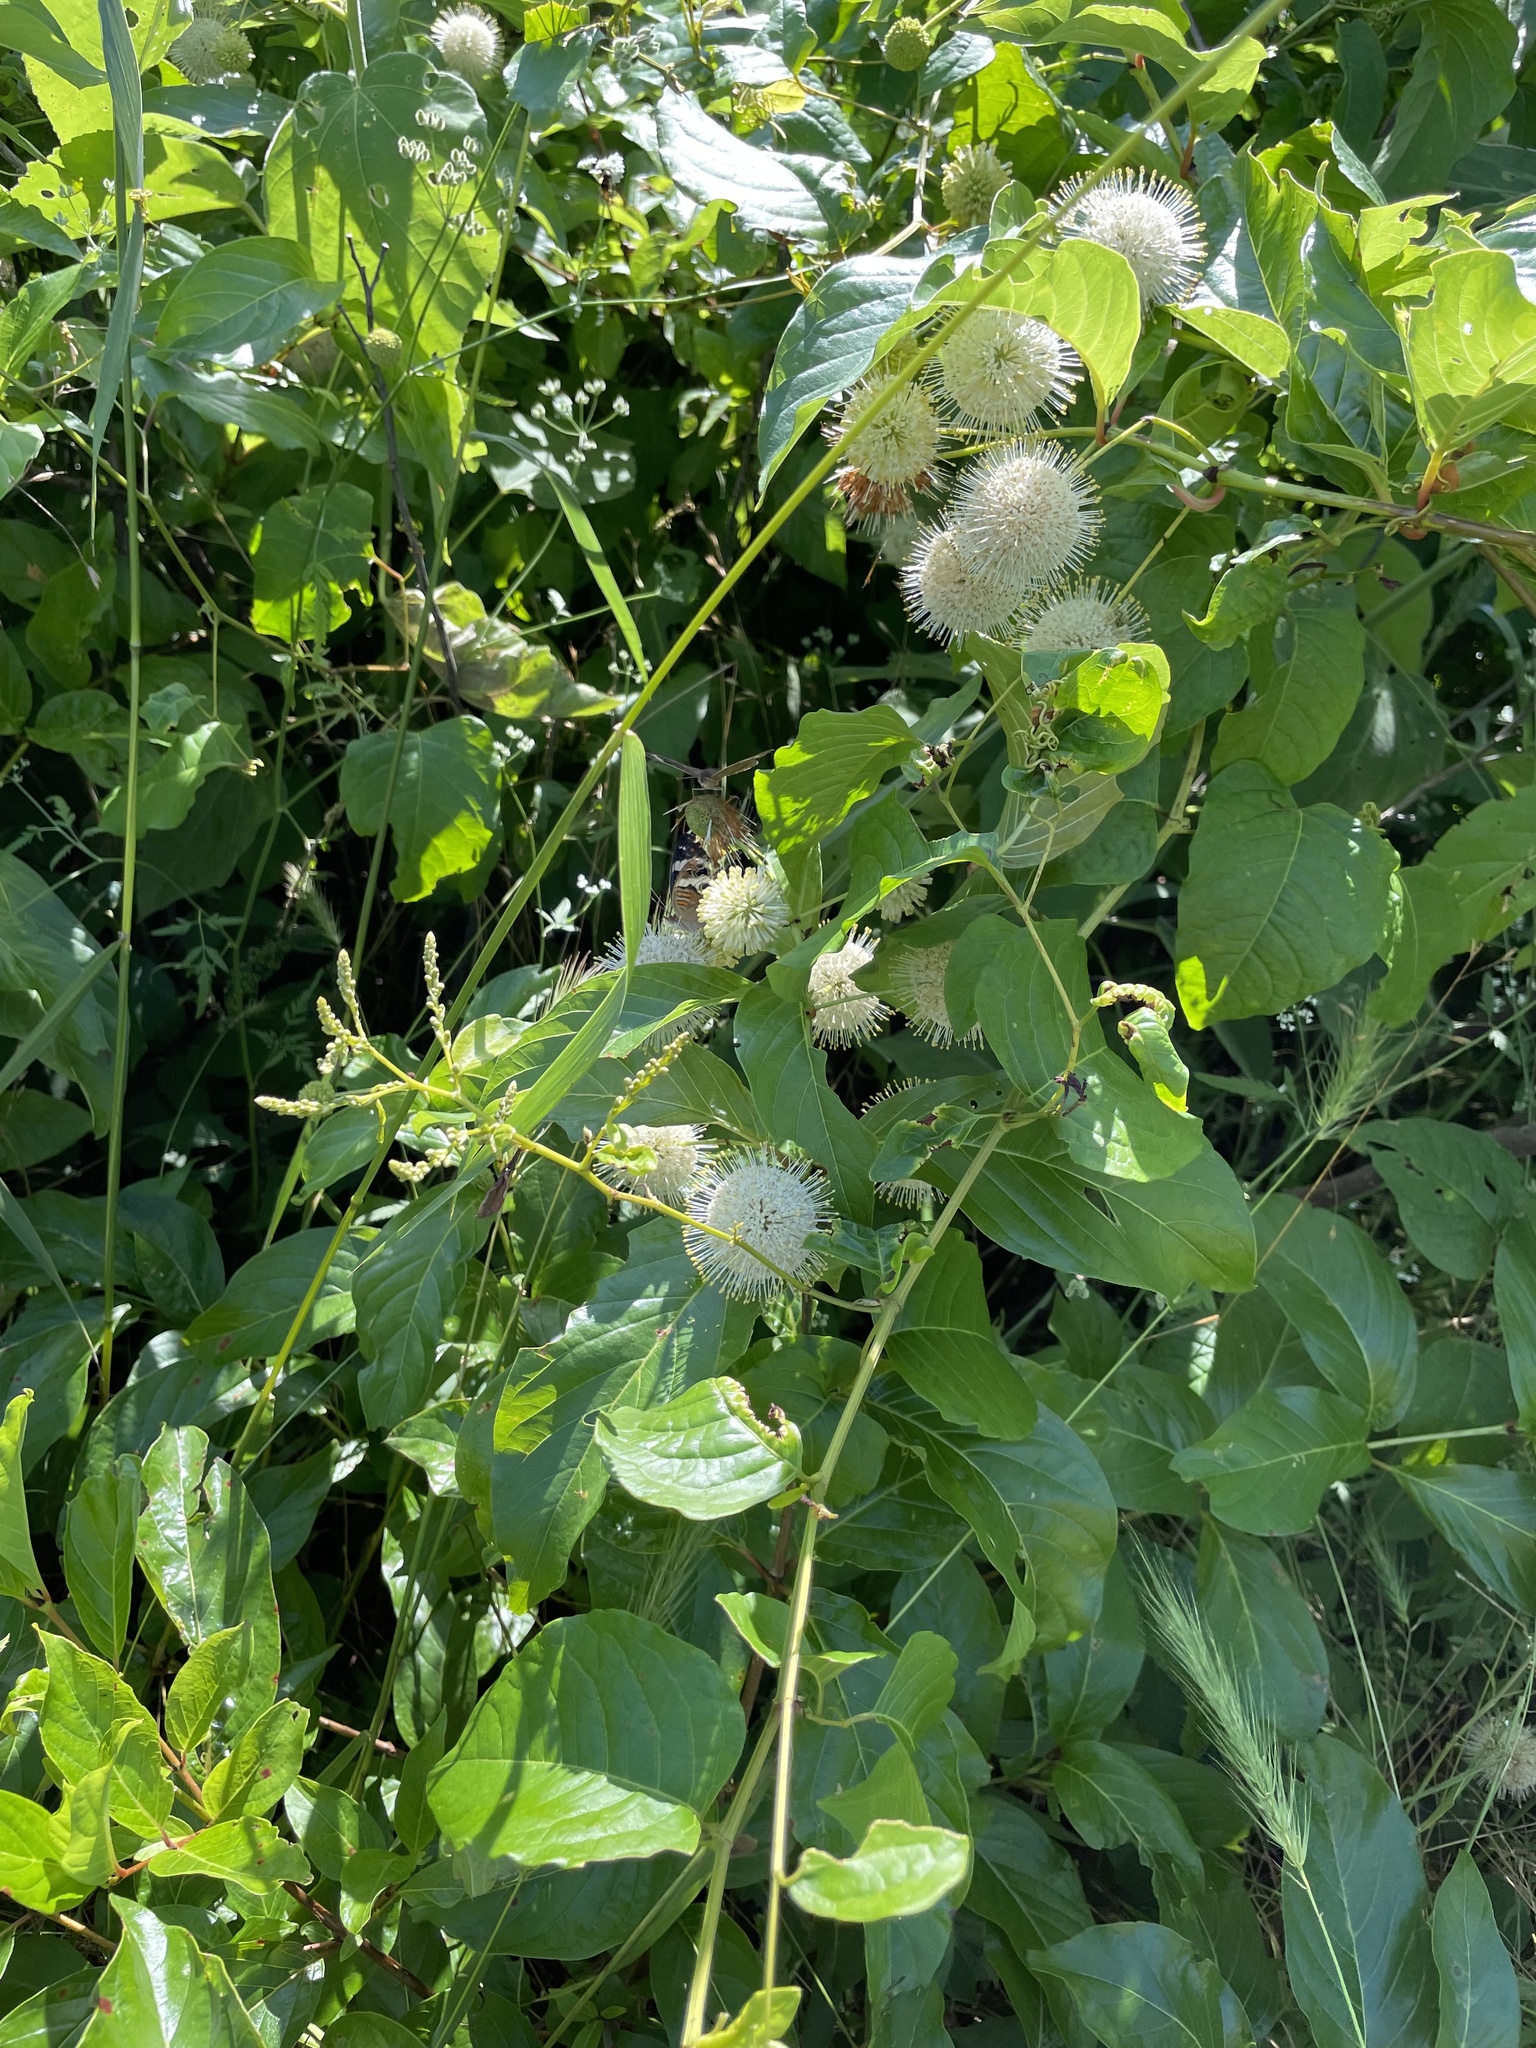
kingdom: Animalia
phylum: Arthropoda
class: Insecta
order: Lepidoptera
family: Nymphalidae
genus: Junonia
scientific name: Junonia coenia
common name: Common buckeye
